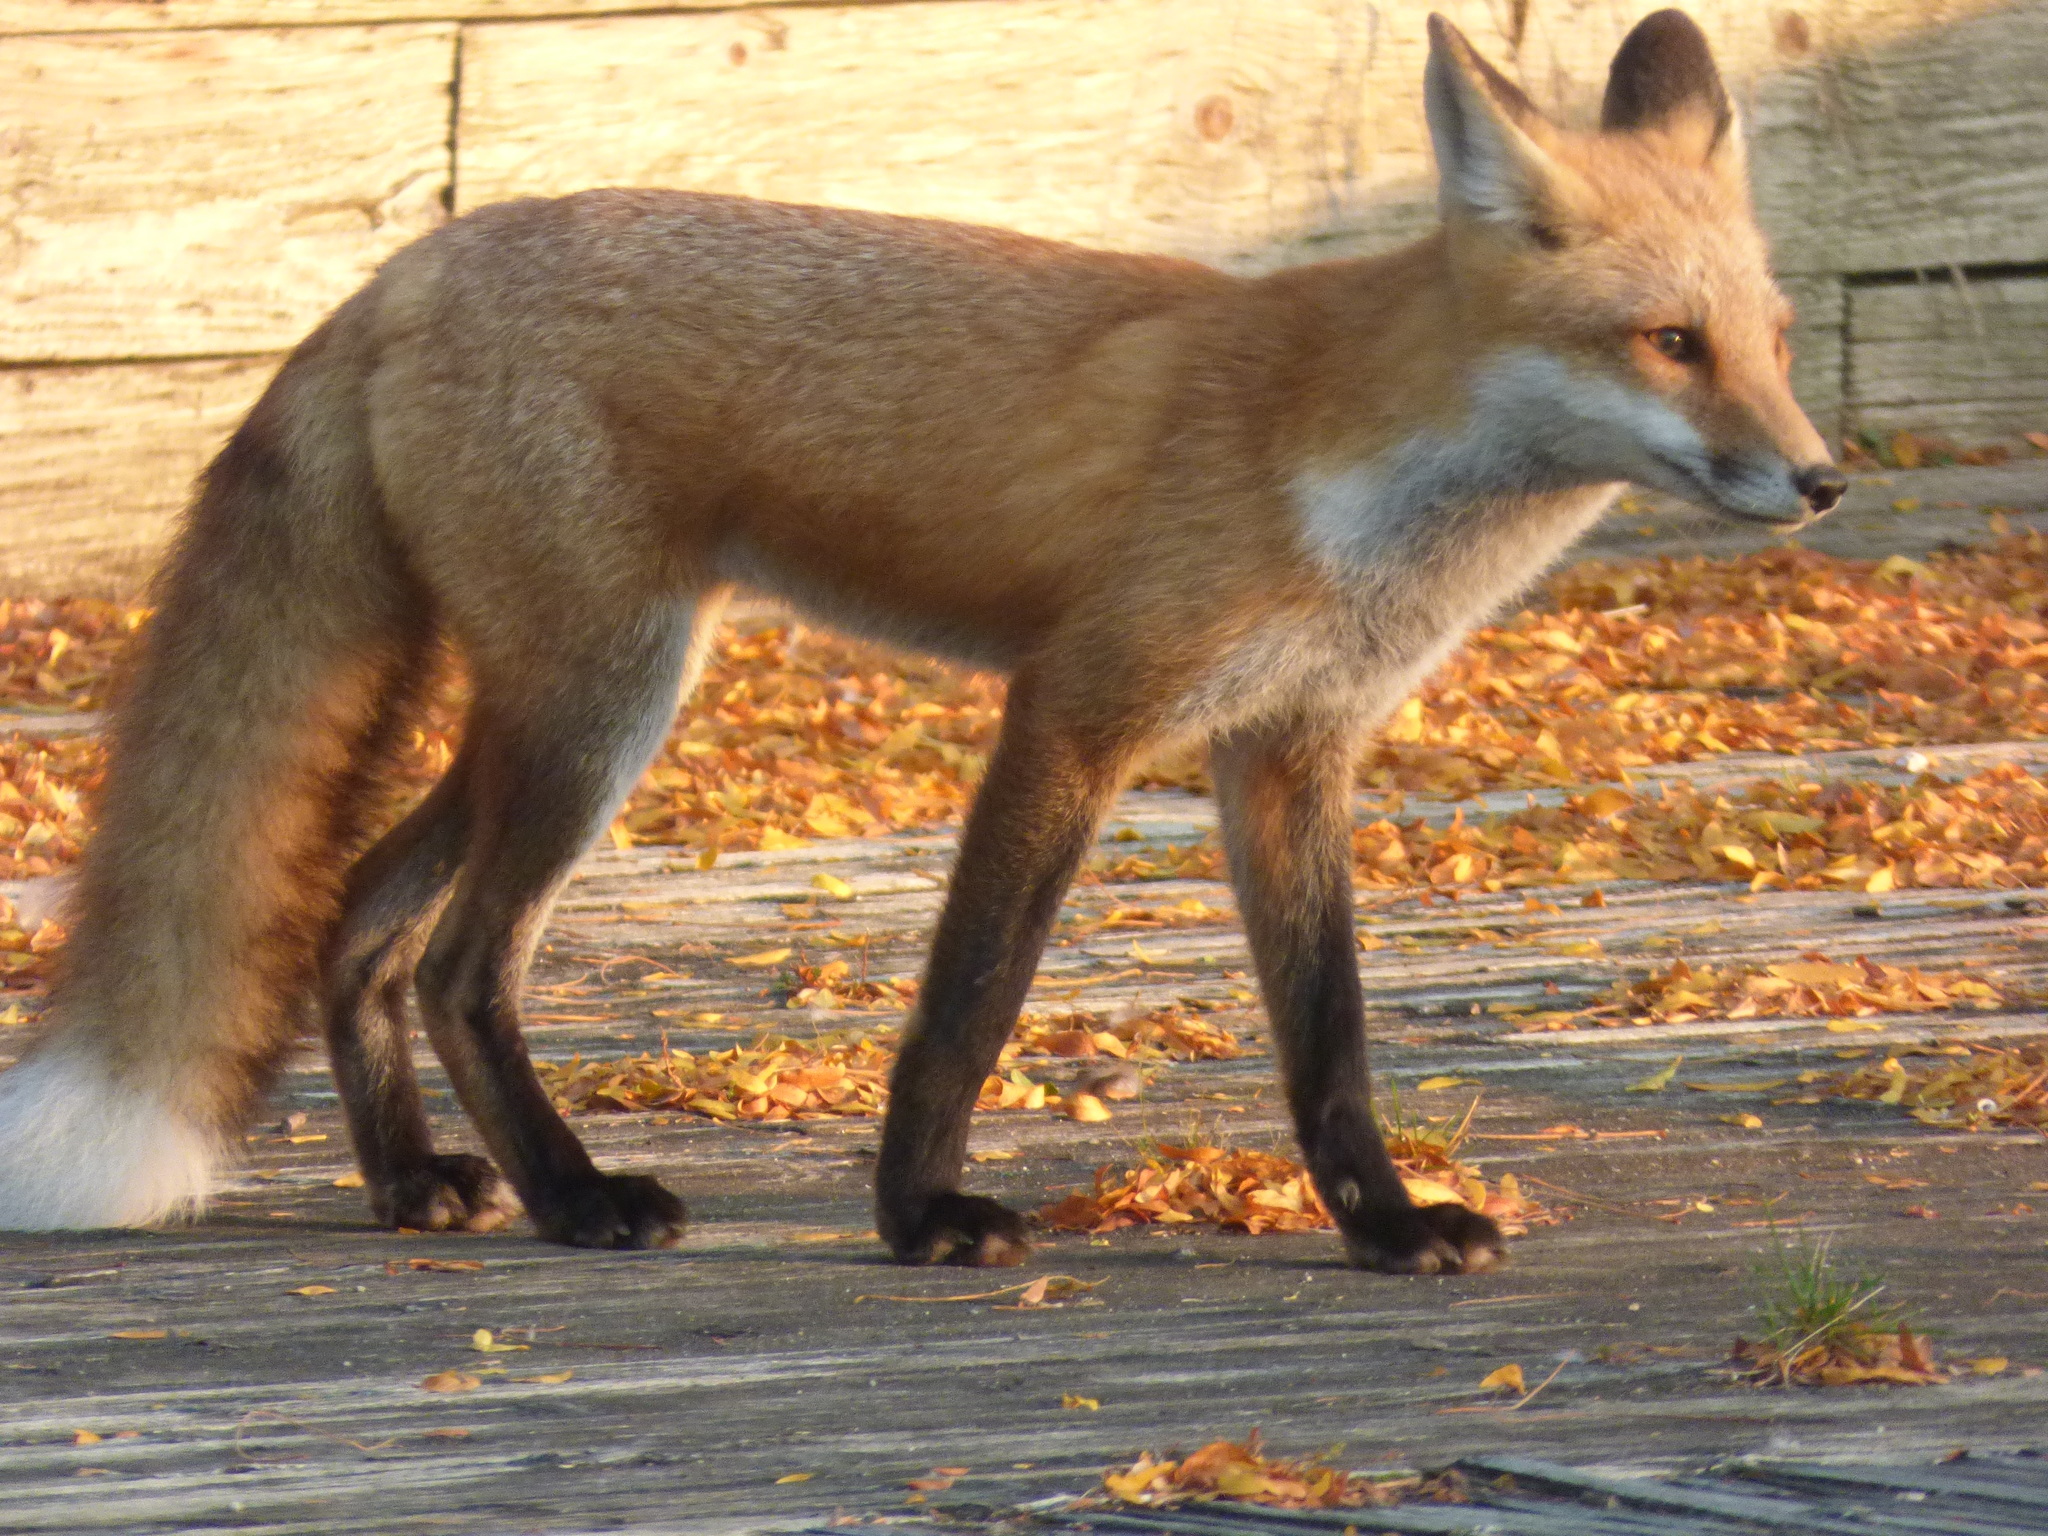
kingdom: Animalia
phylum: Chordata
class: Mammalia
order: Carnivora
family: Canidae
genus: Vulpes
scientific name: Vulpes vulpes
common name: Red fox
